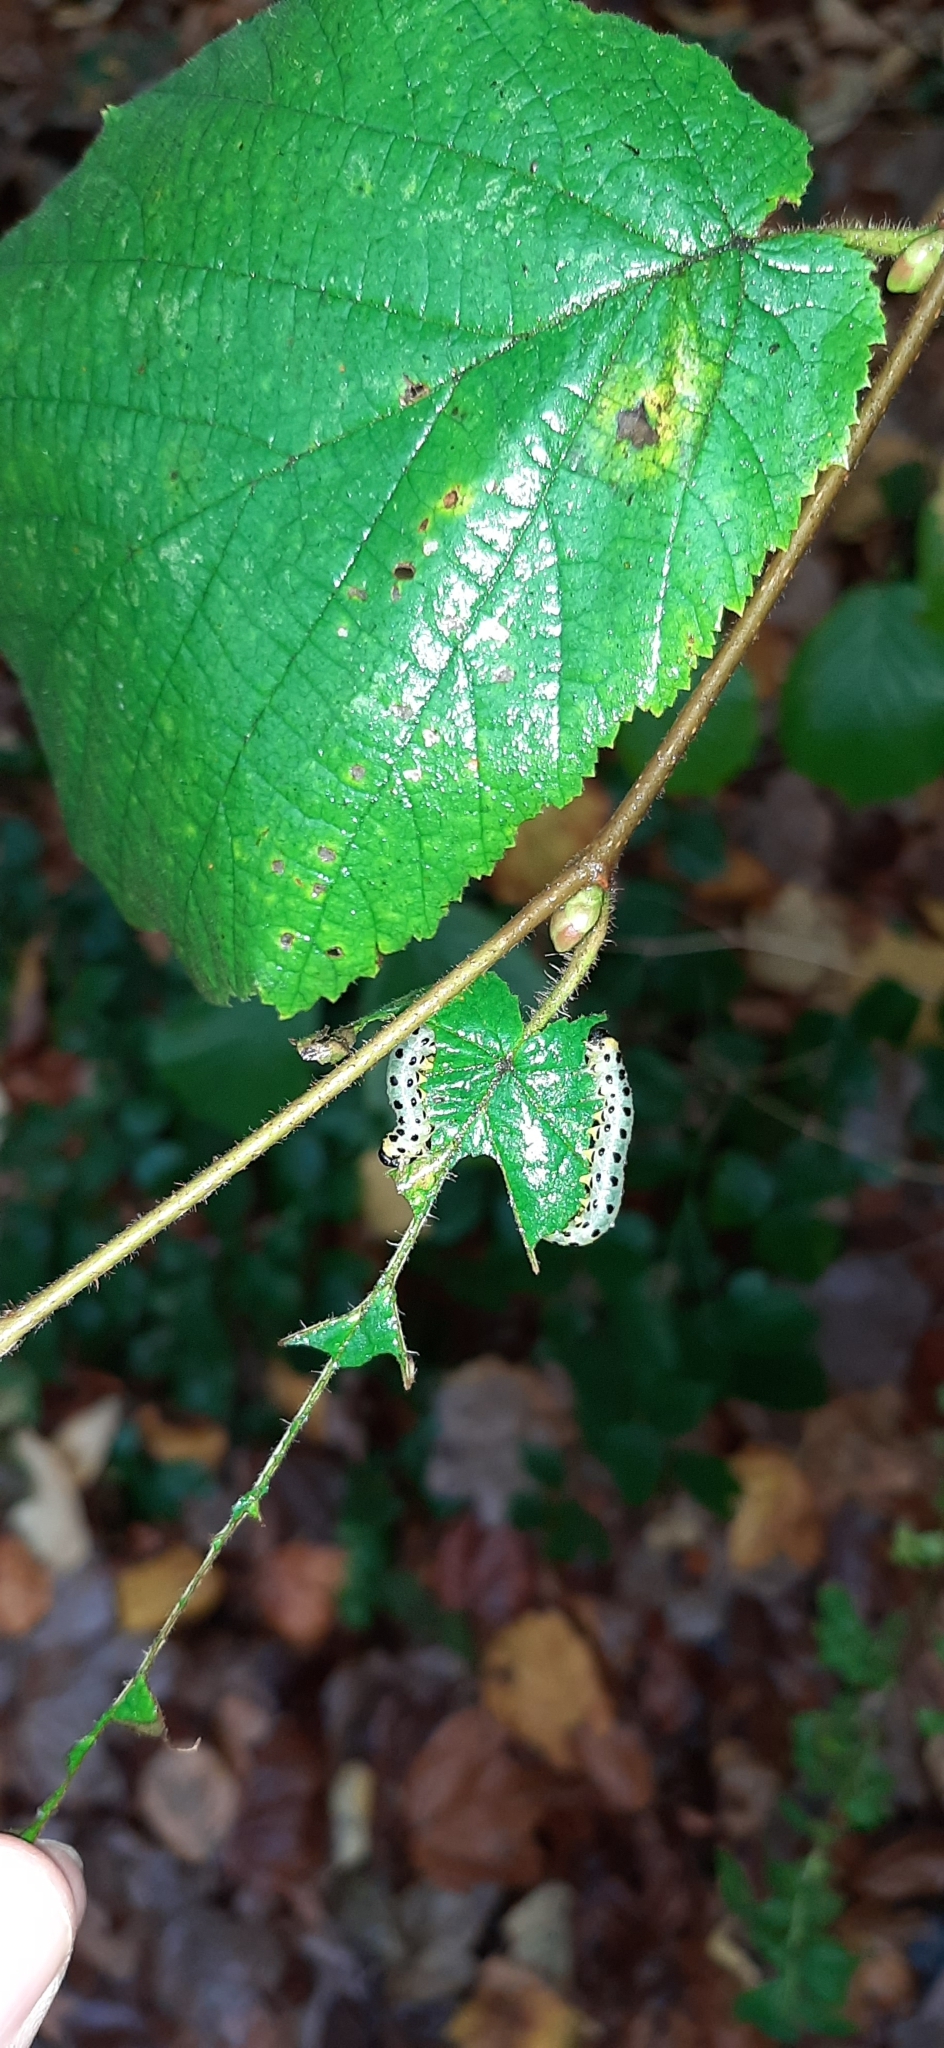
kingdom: Animalia
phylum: Arthropoda
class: Insecta
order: Hymenoptera
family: Tenthredinidae
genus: Craesus
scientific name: Craesus septentrionalis
